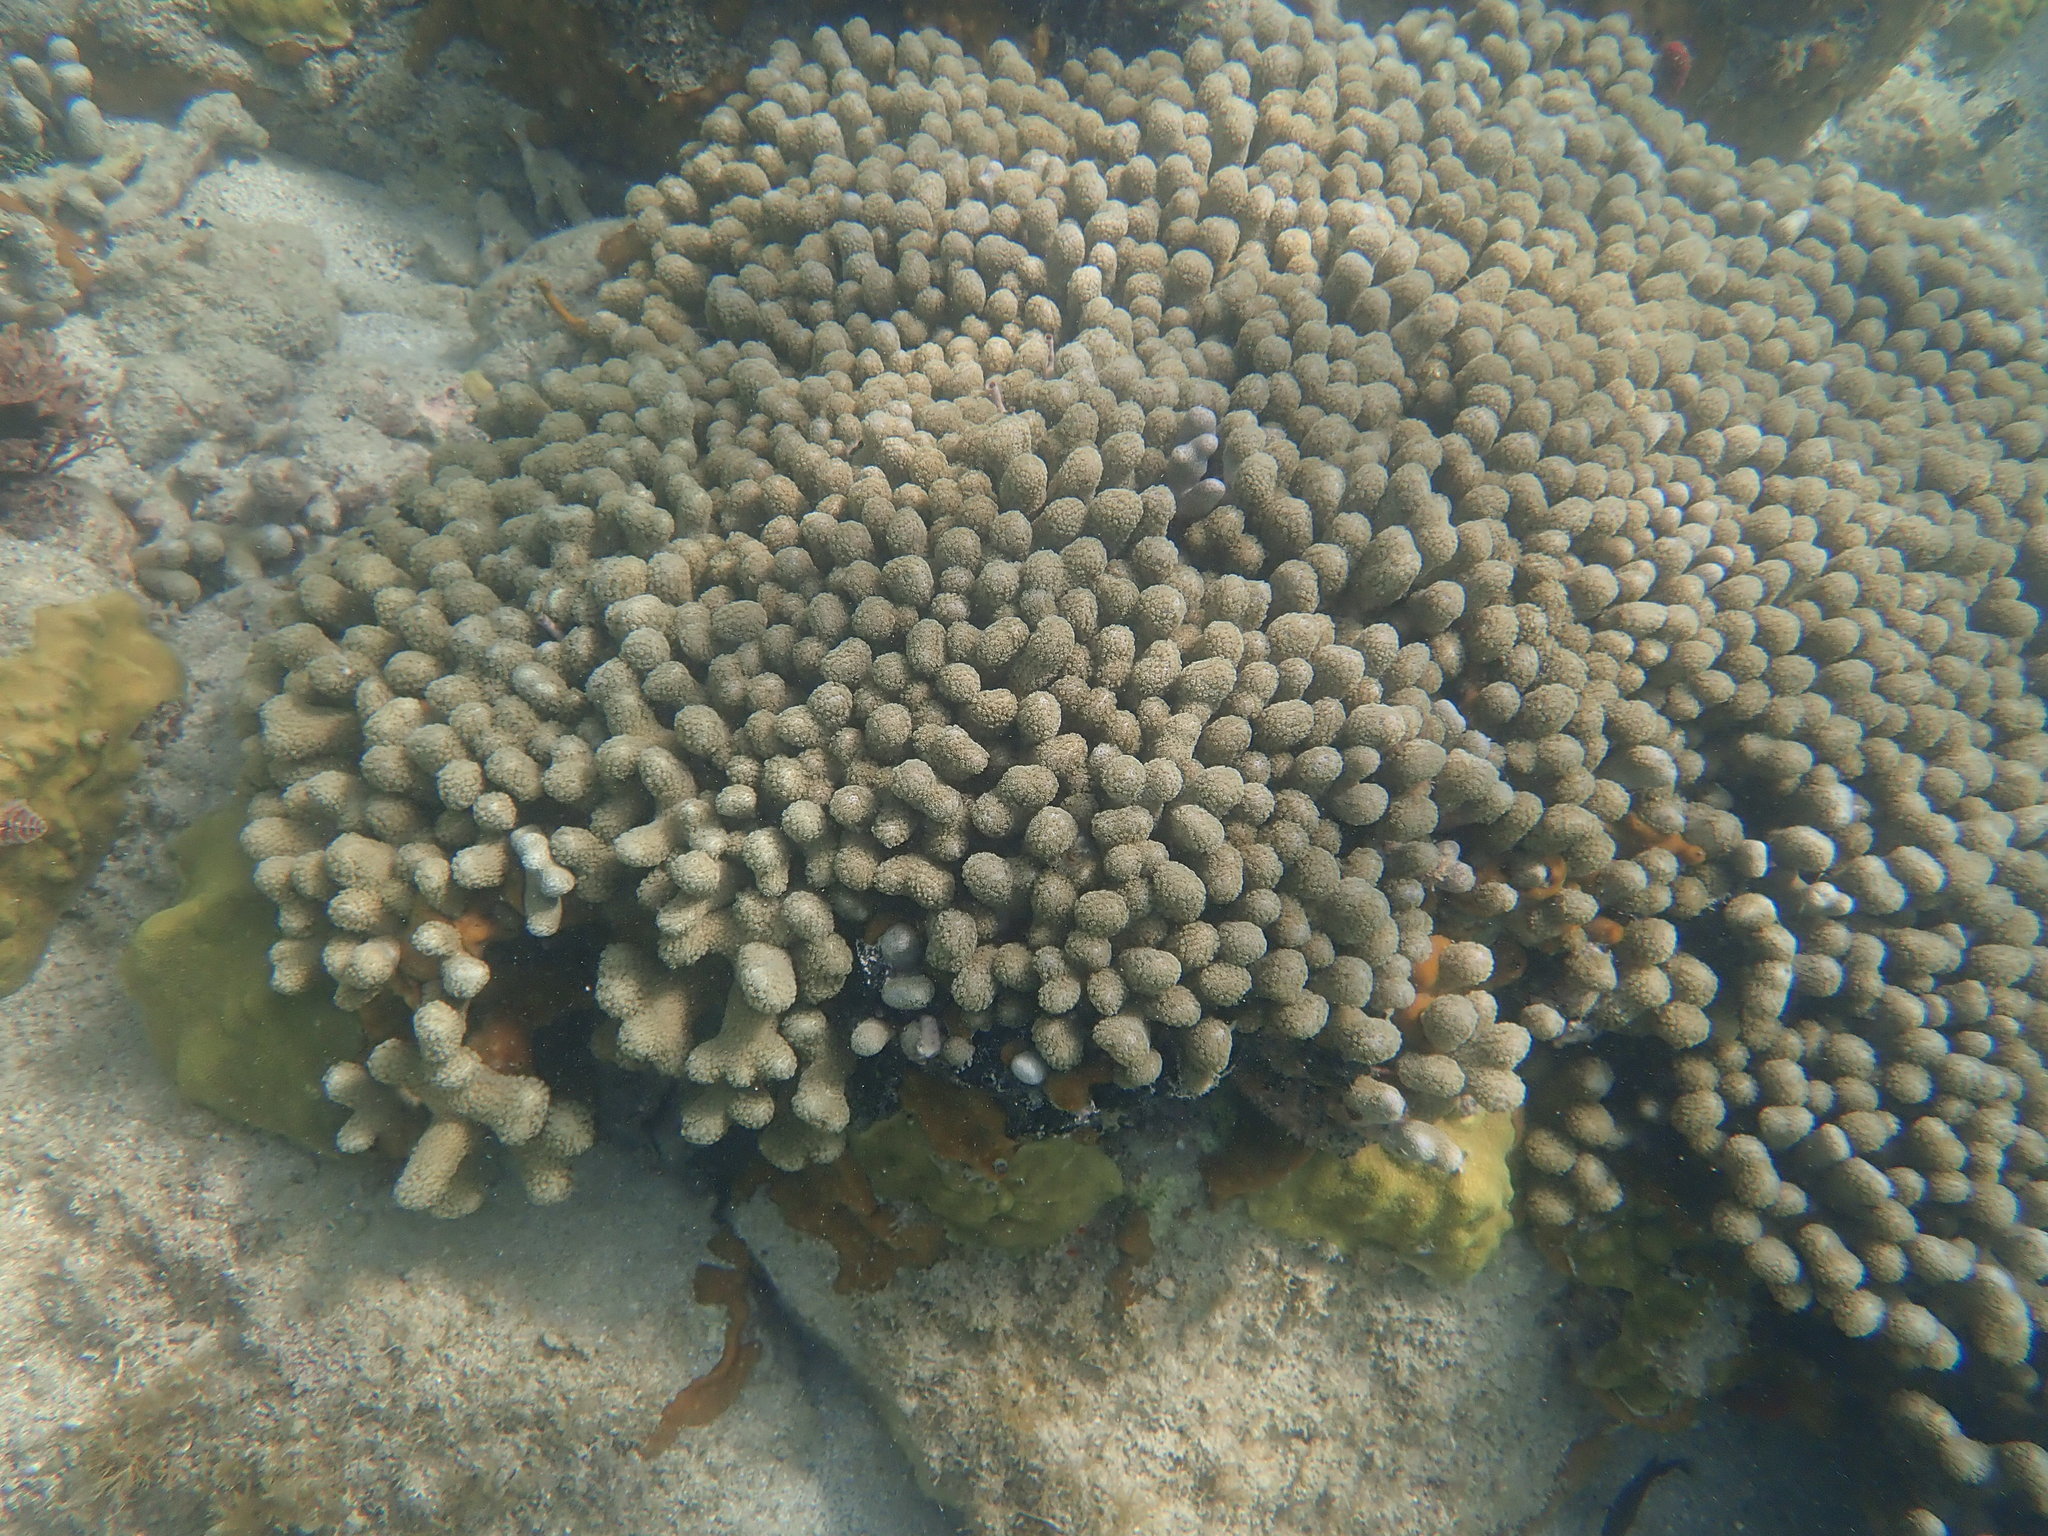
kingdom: Animalia
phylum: Cnidaria
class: Anthozoa
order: Scleractinia
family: Poritidae
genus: Porites
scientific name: Porites porites
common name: Finger coral
